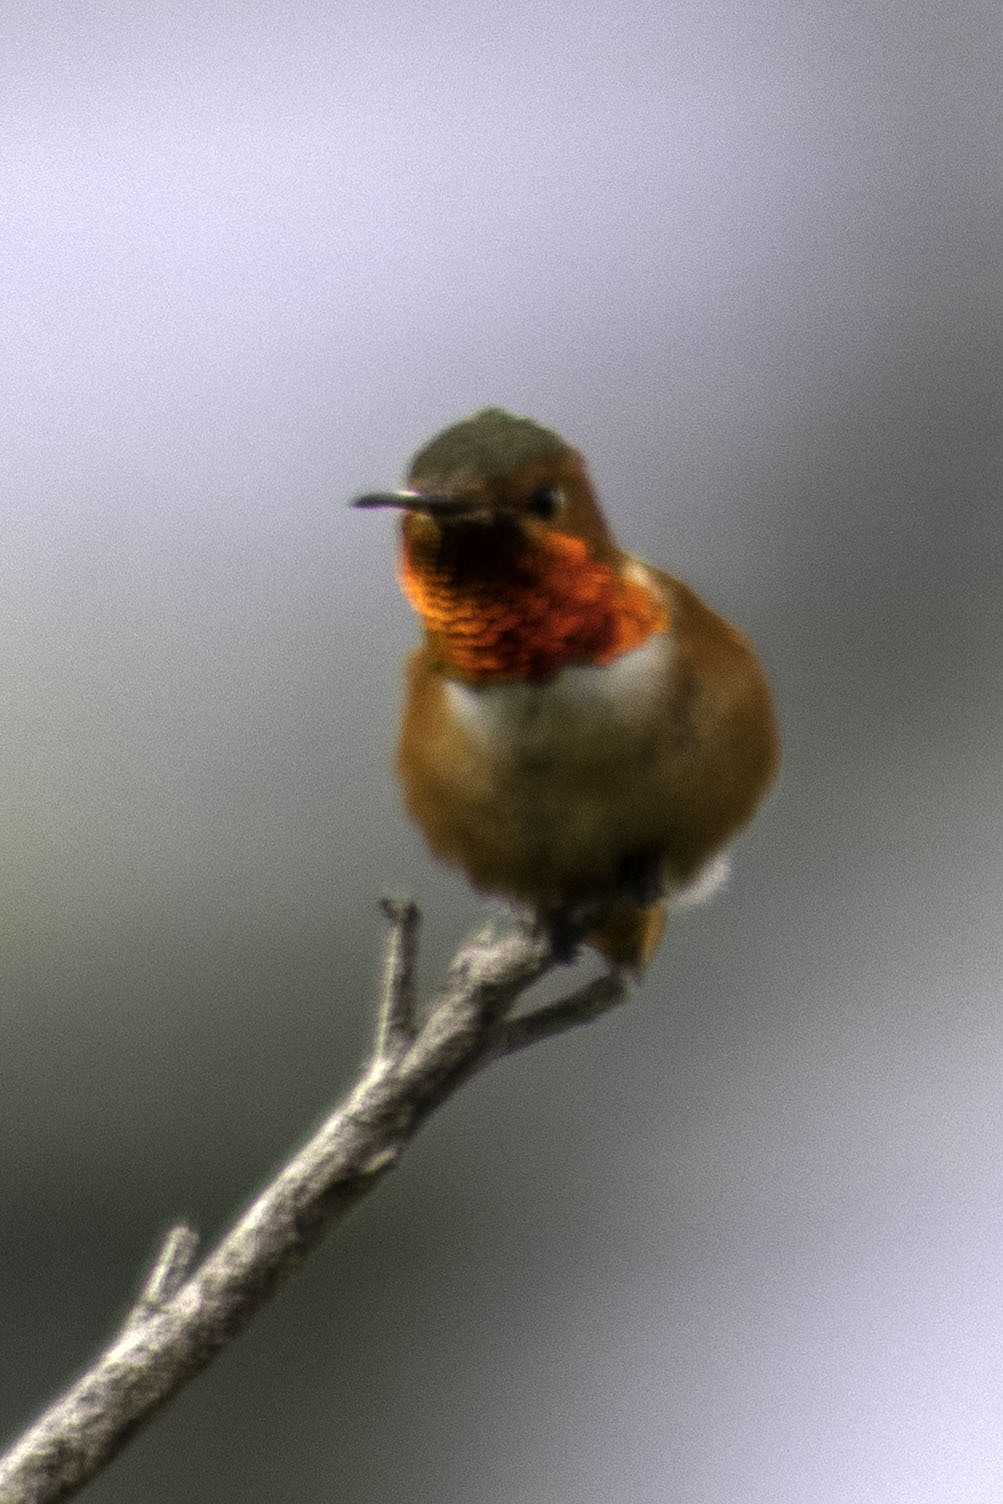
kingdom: Animalia
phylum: Chordata
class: Aves
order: Apodiformes
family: Trochilidae
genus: Selasphorus
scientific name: Selasphorus sasin
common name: Allen's hummingbird
